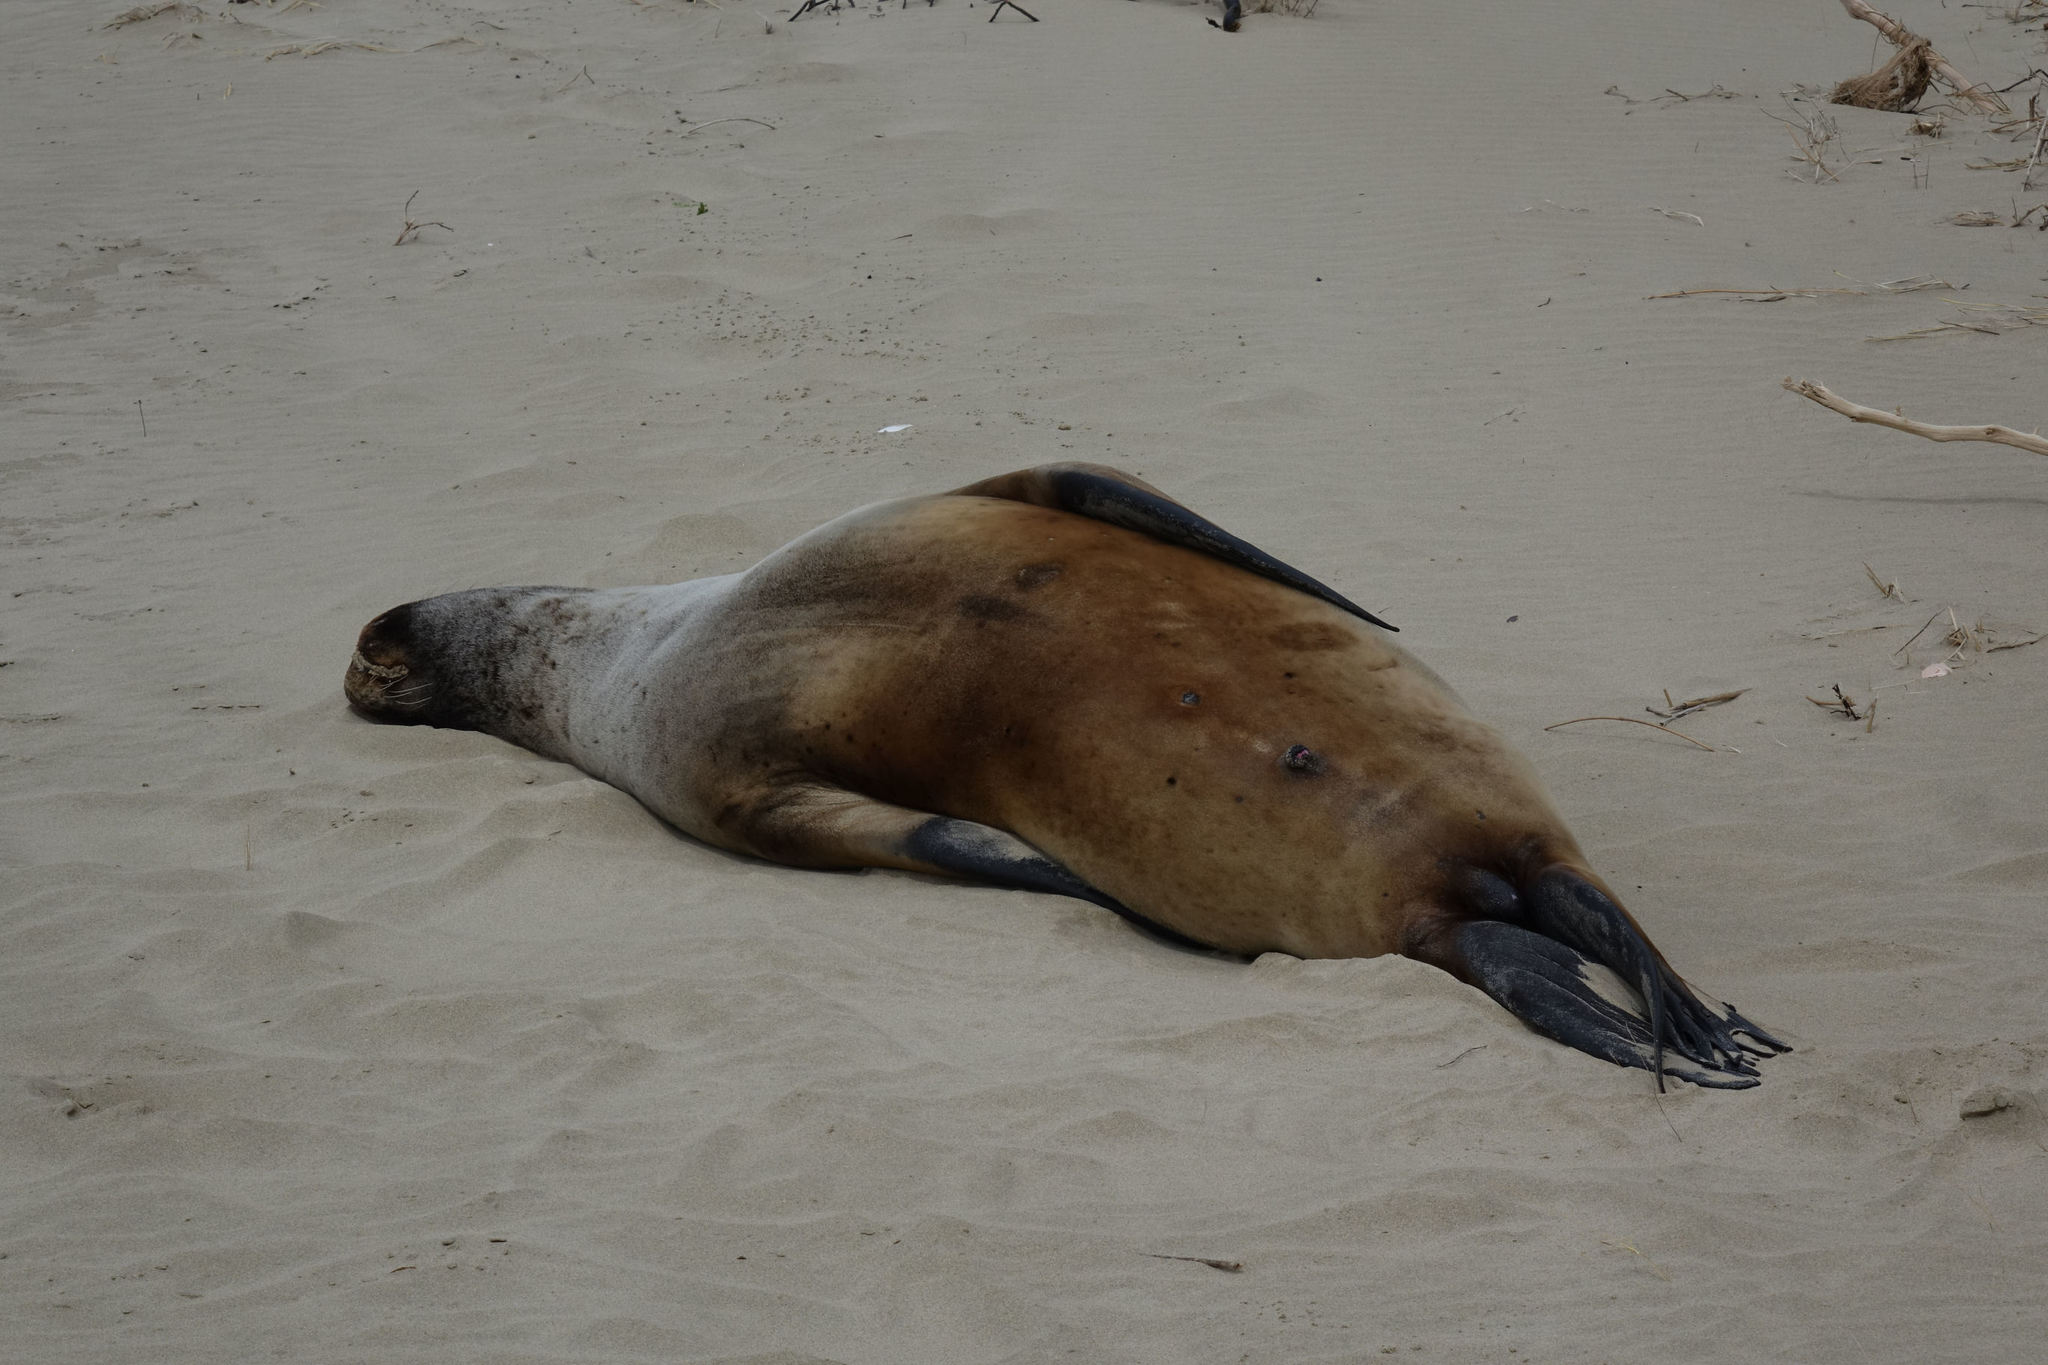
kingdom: Animalia
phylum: Chordata
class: Mammalia
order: Carnivora
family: Otariidae
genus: Phocarctos
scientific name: Phocarctos hookeri
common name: New zealand sea lion
